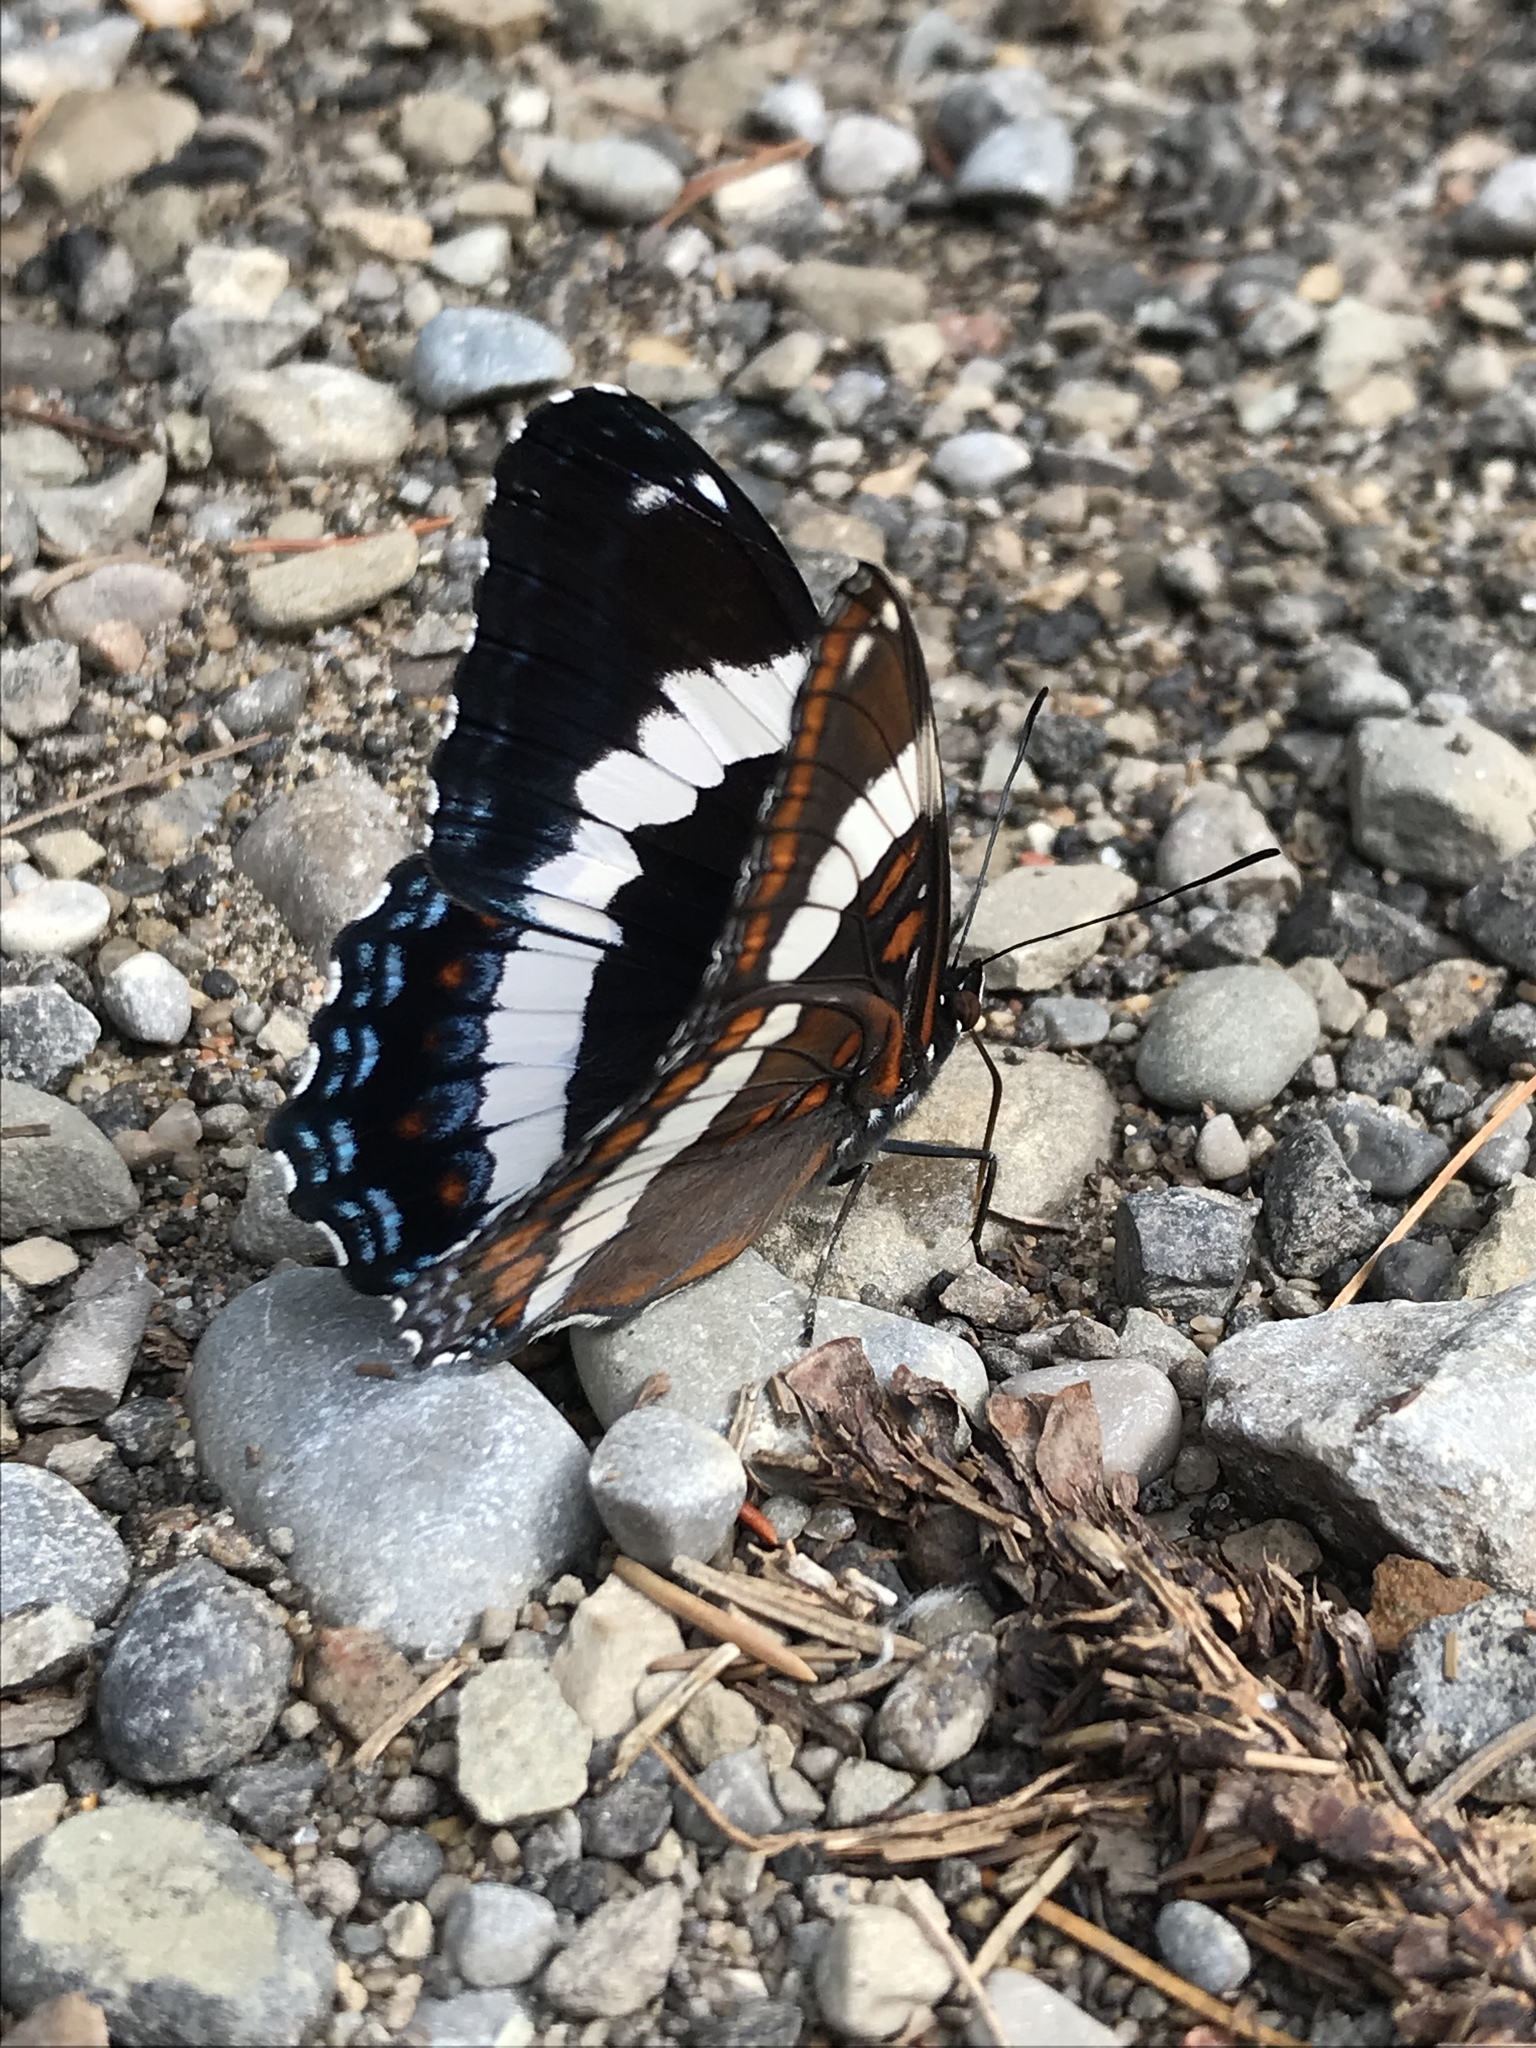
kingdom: Animalia
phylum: Arthropoda
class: Insecta
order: Lepidoptera
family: Nymphalidae
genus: Limenitis
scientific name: Limenitis arthemis
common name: Red-spotted admiral
